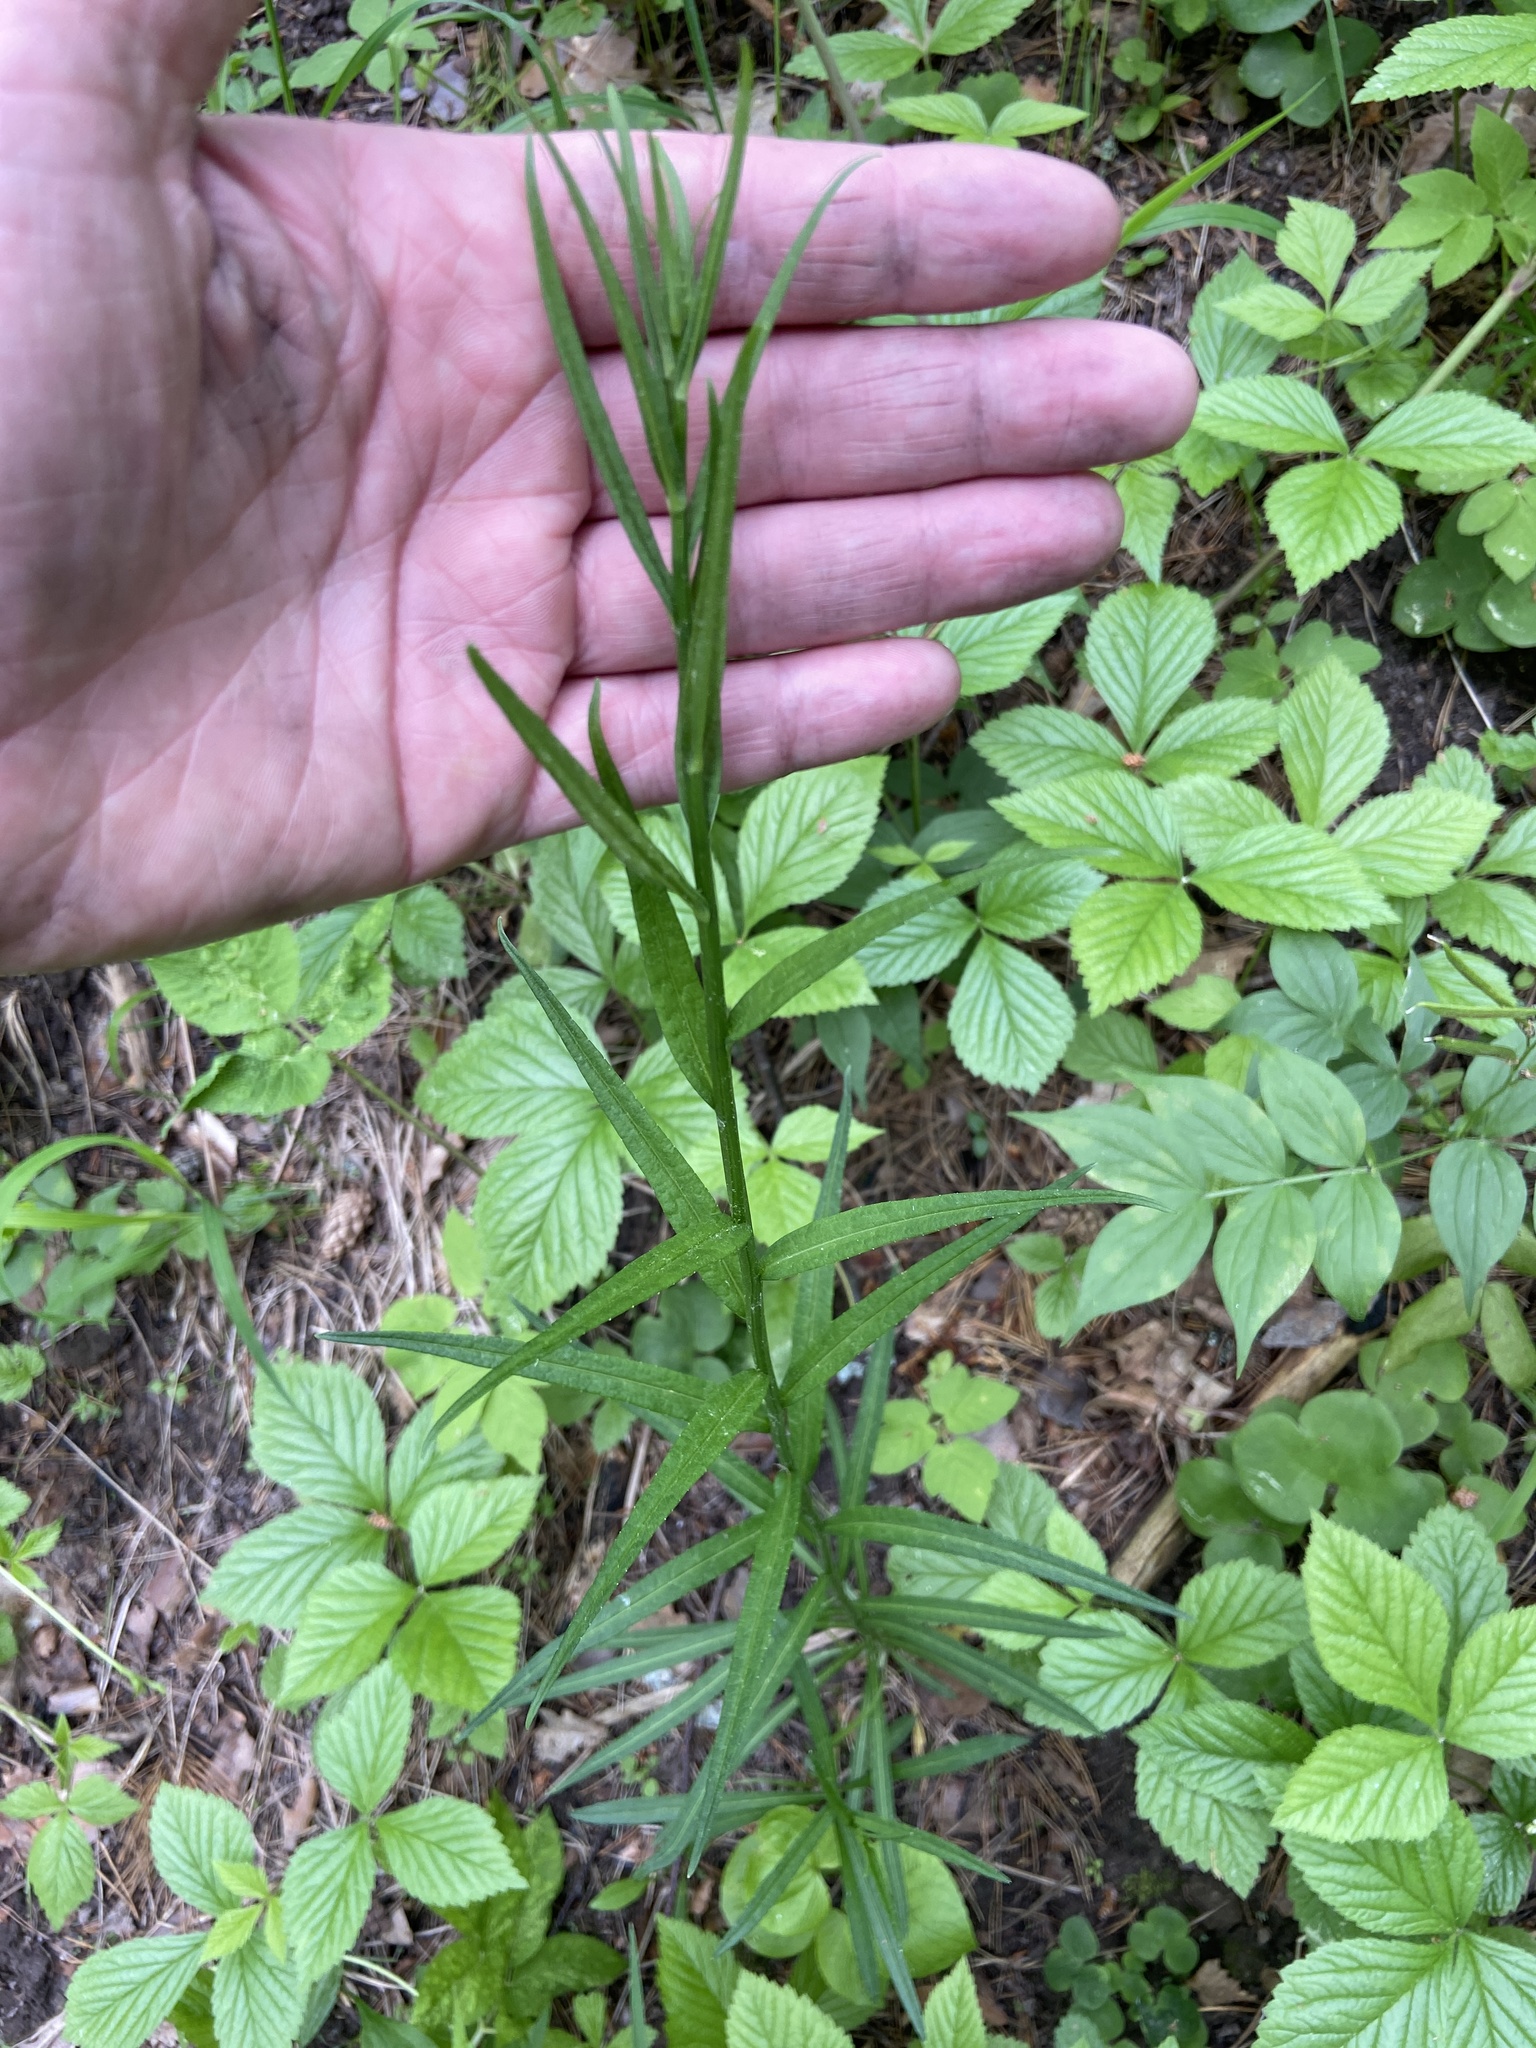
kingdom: Plantae
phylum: Tracheophyta
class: Magnoliopsida
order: Asterales
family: Campanulaceae
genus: Campanula
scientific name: Campanula persicifolia
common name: Peach-leaved bellflower
